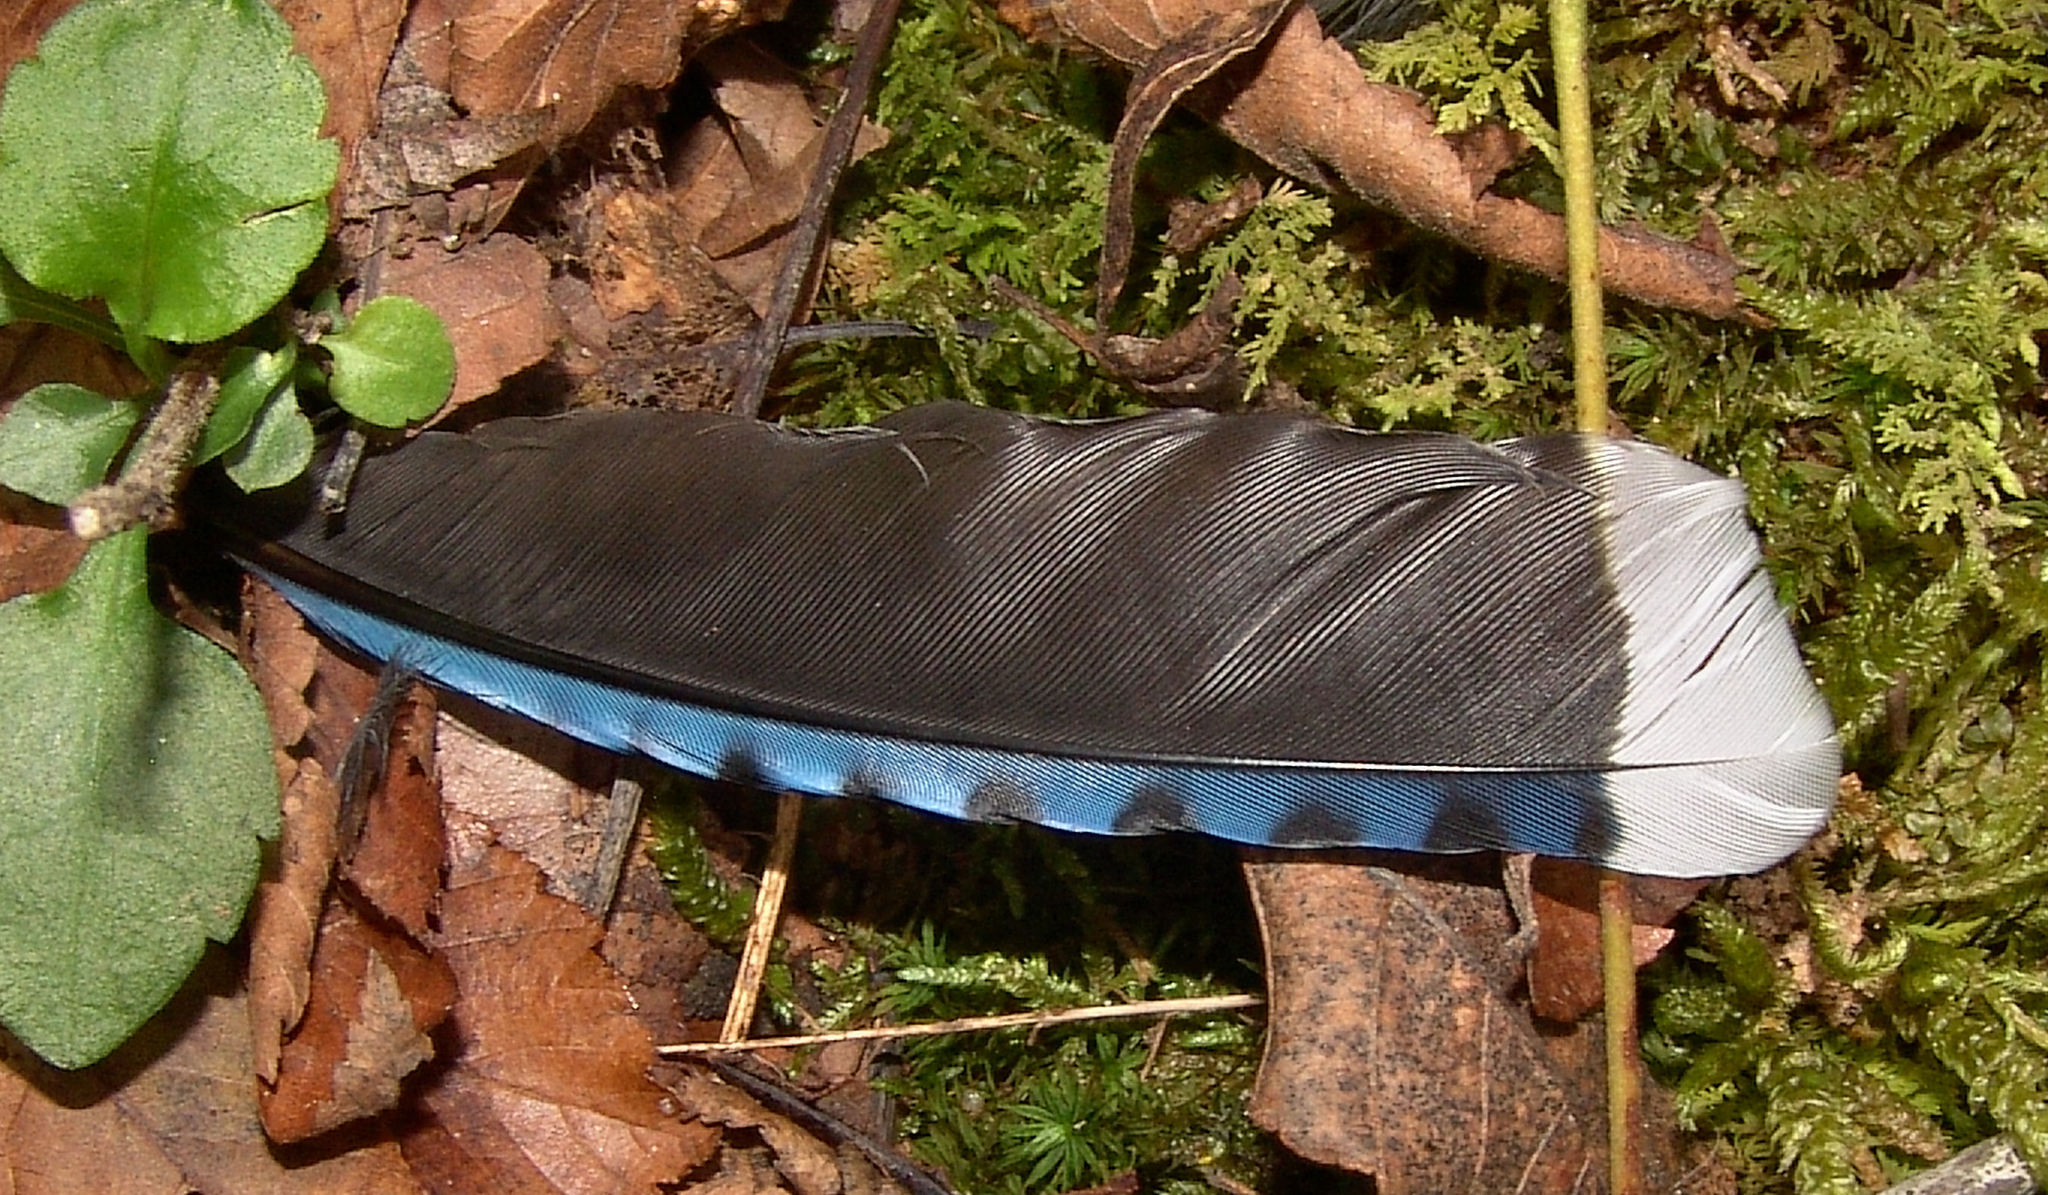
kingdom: Animalia
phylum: Chordata
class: Aves
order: Passeriformes
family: Corvidae
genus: Cyanocitta
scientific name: Cyanocitta cristata
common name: Blue jay
